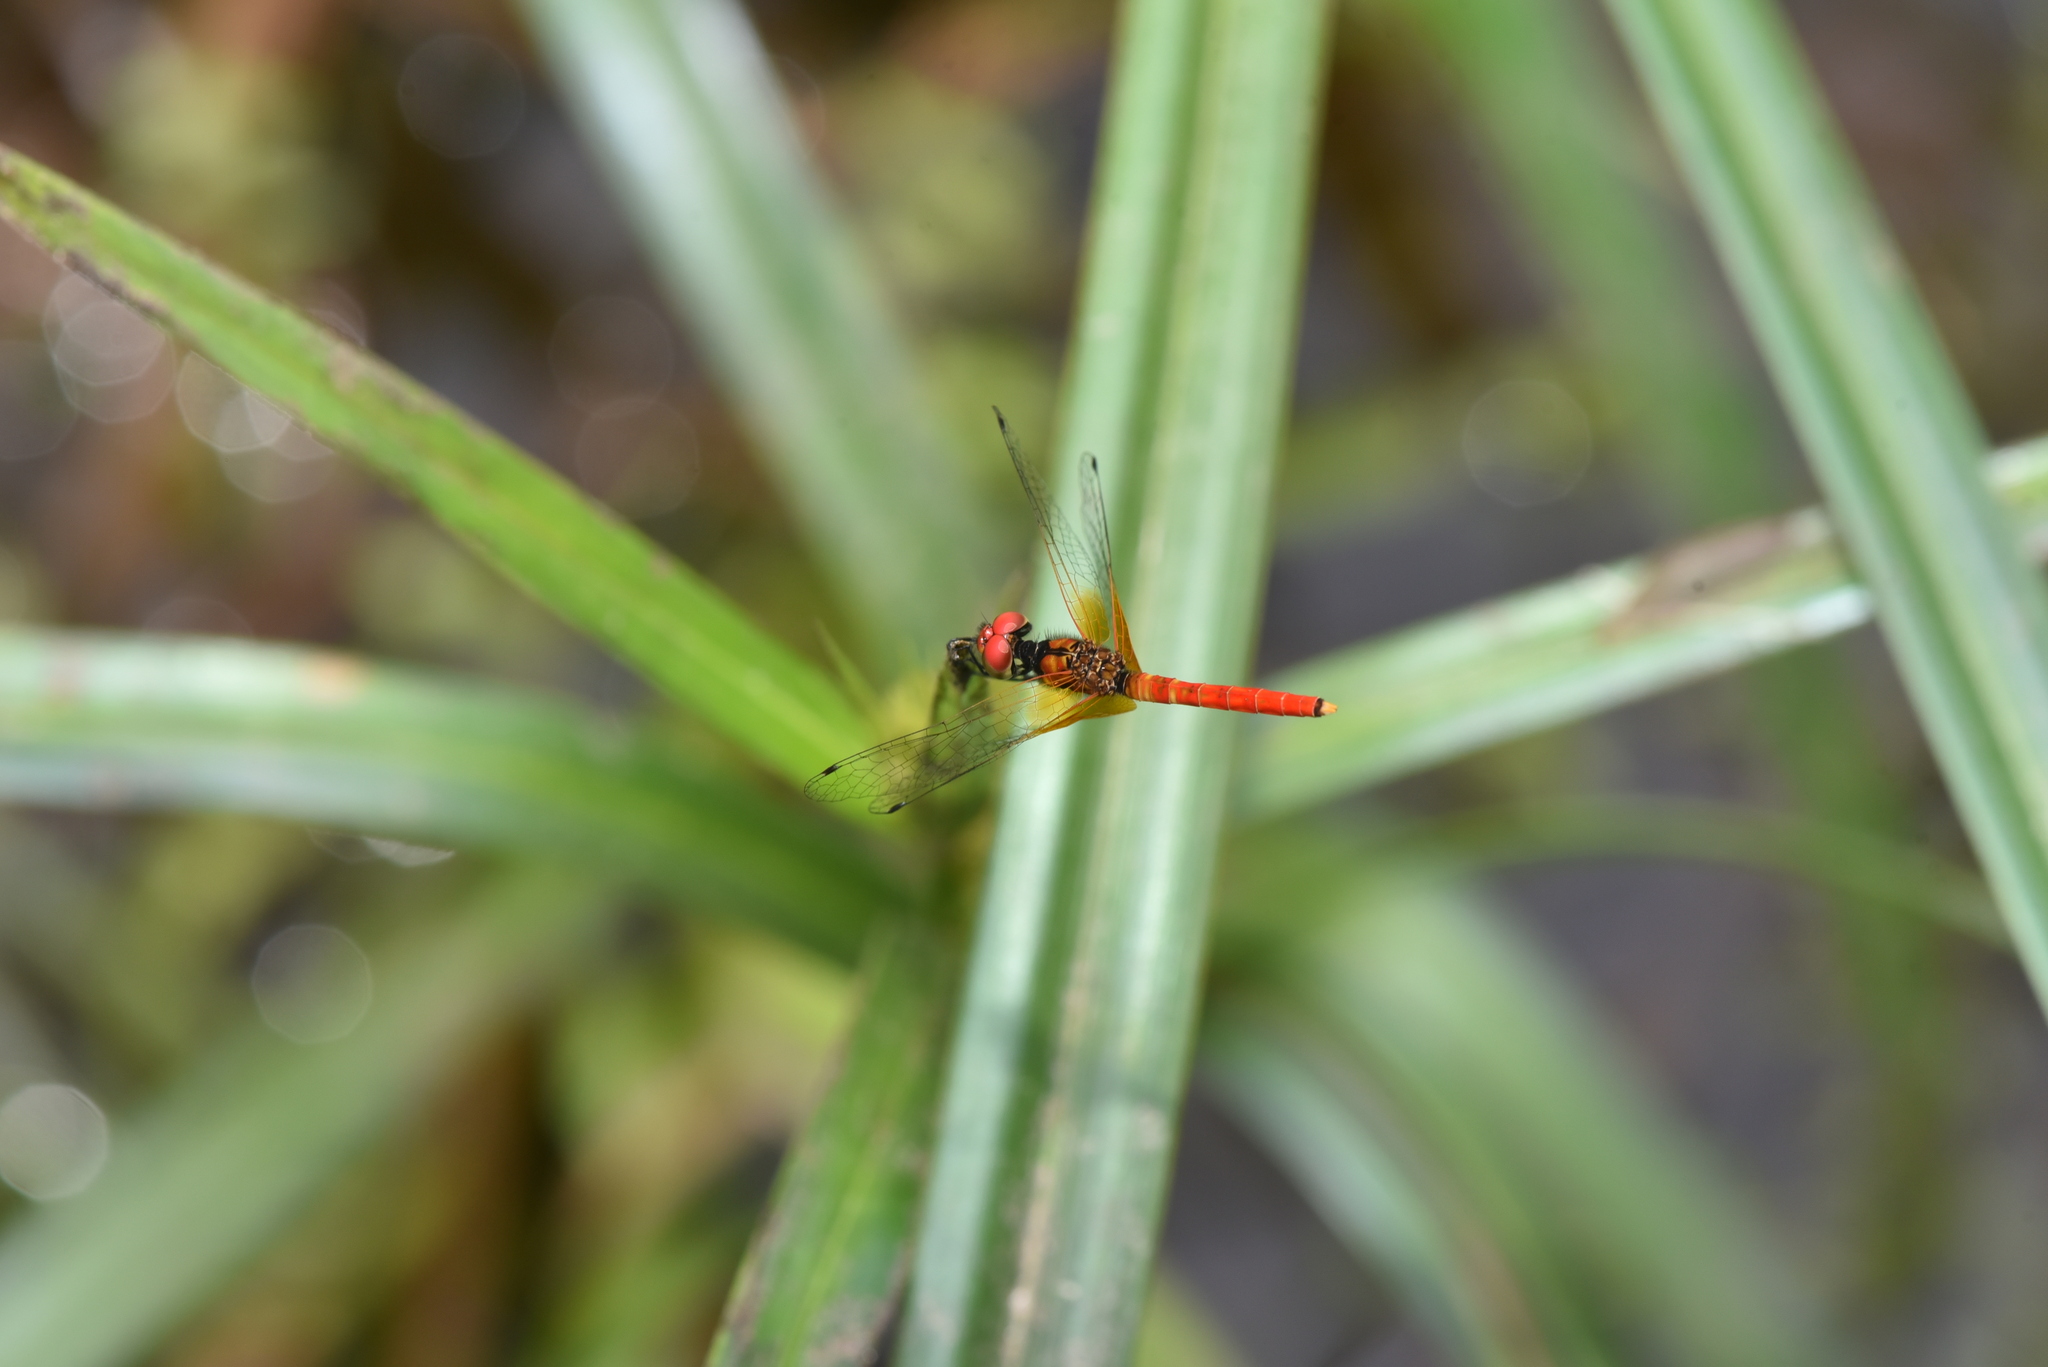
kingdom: Animalia
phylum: Arthropoda
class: Insecta
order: Odonata
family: Libellulidae
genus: Nannophya
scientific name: Nannophya pygmaea
